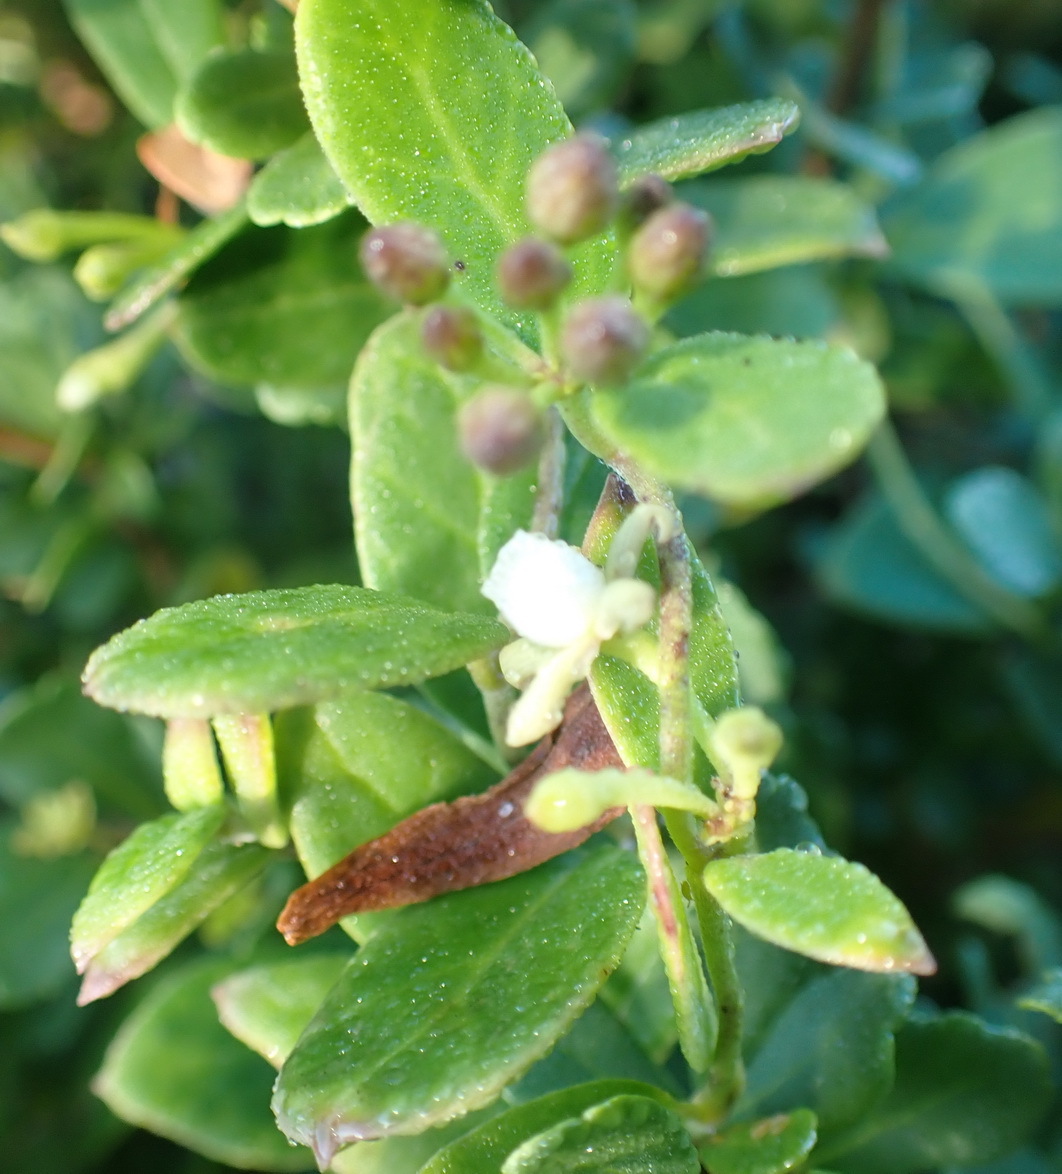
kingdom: Plantae
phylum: Tracheophyta
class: Magnoliopsida
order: Gentianales
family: Apocynaceae
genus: Cynanchum
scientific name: Cynanchum natalitium
